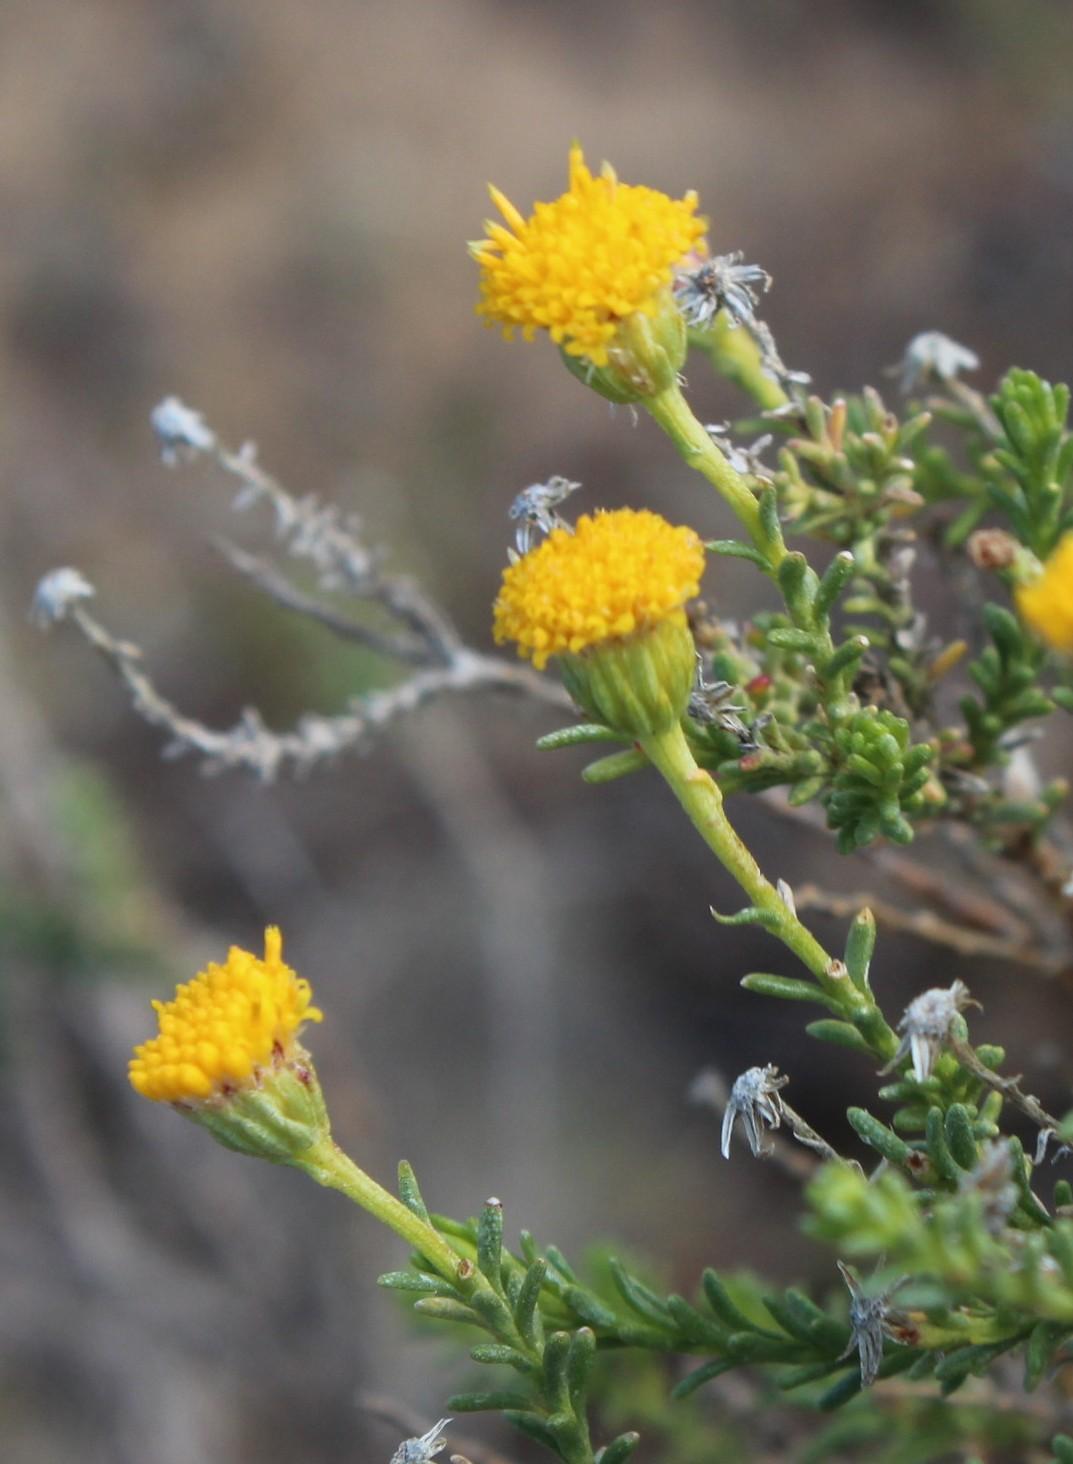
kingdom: Plantae
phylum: Tracheophyta
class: Magnoliopsida
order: Asterales
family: Asteraceae
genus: Chrysocoma
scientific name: Chrysocoma ciliata
